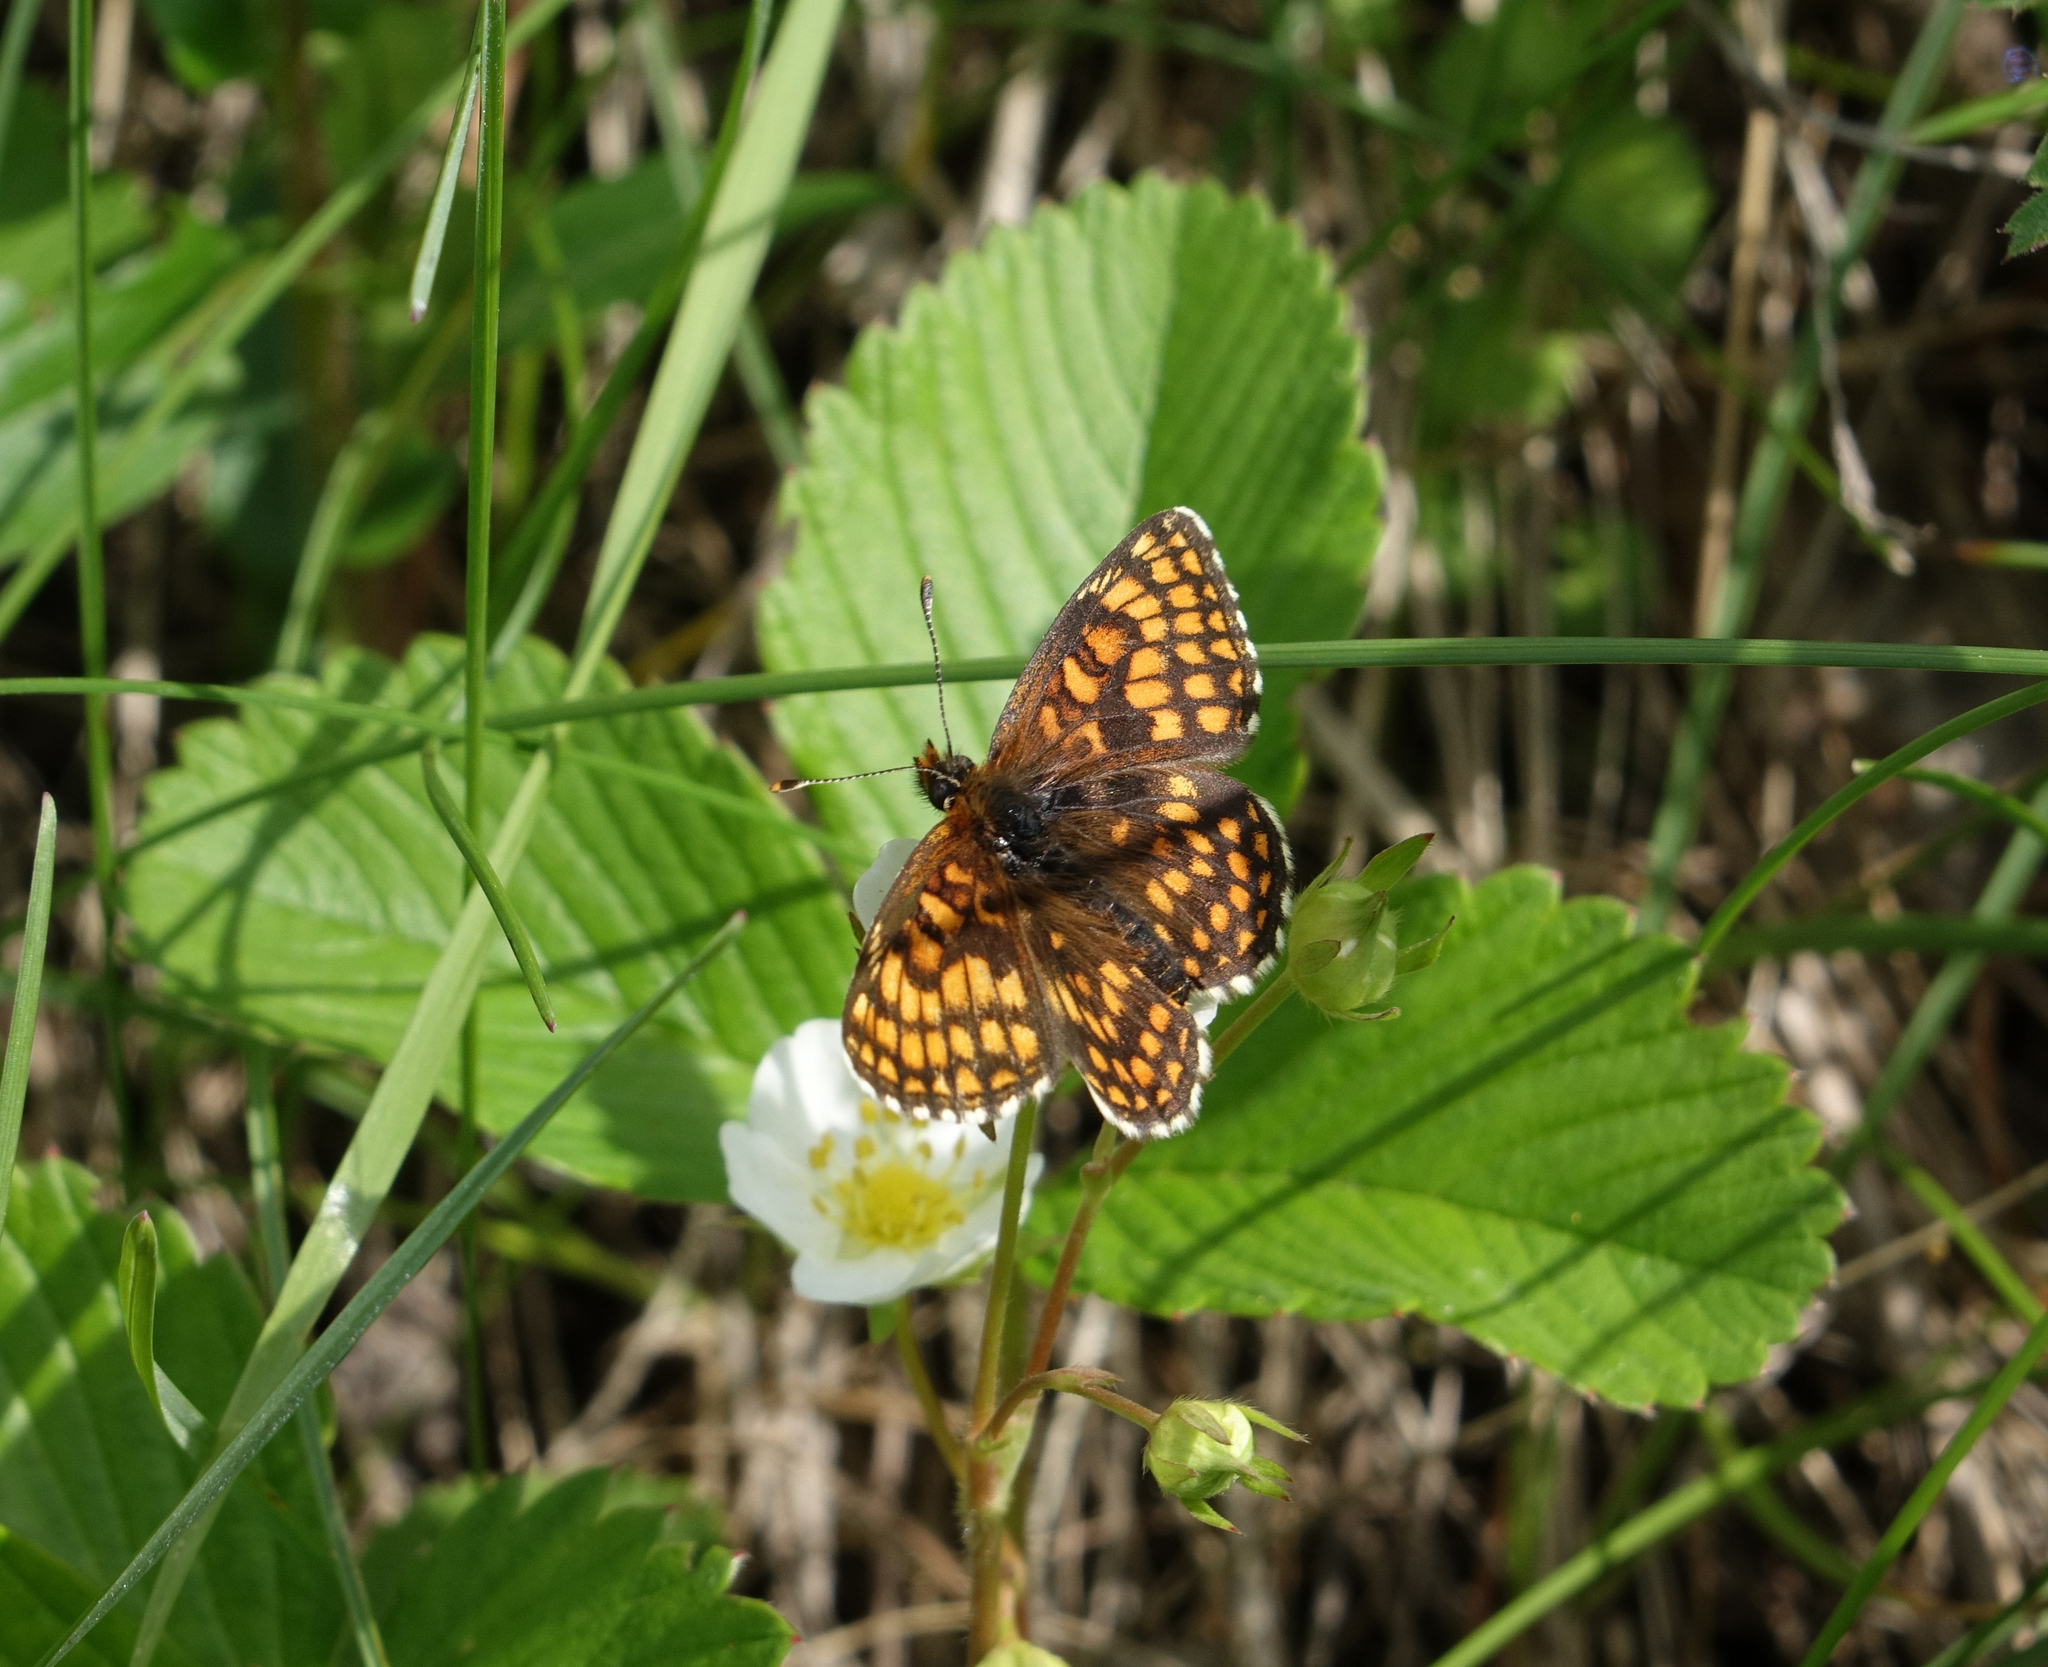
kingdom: Plantae
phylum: Tracheophyta
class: Magnoliopsida
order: Rosales
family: Rosaceae
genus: Fragaria
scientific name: Fragaria viridis
